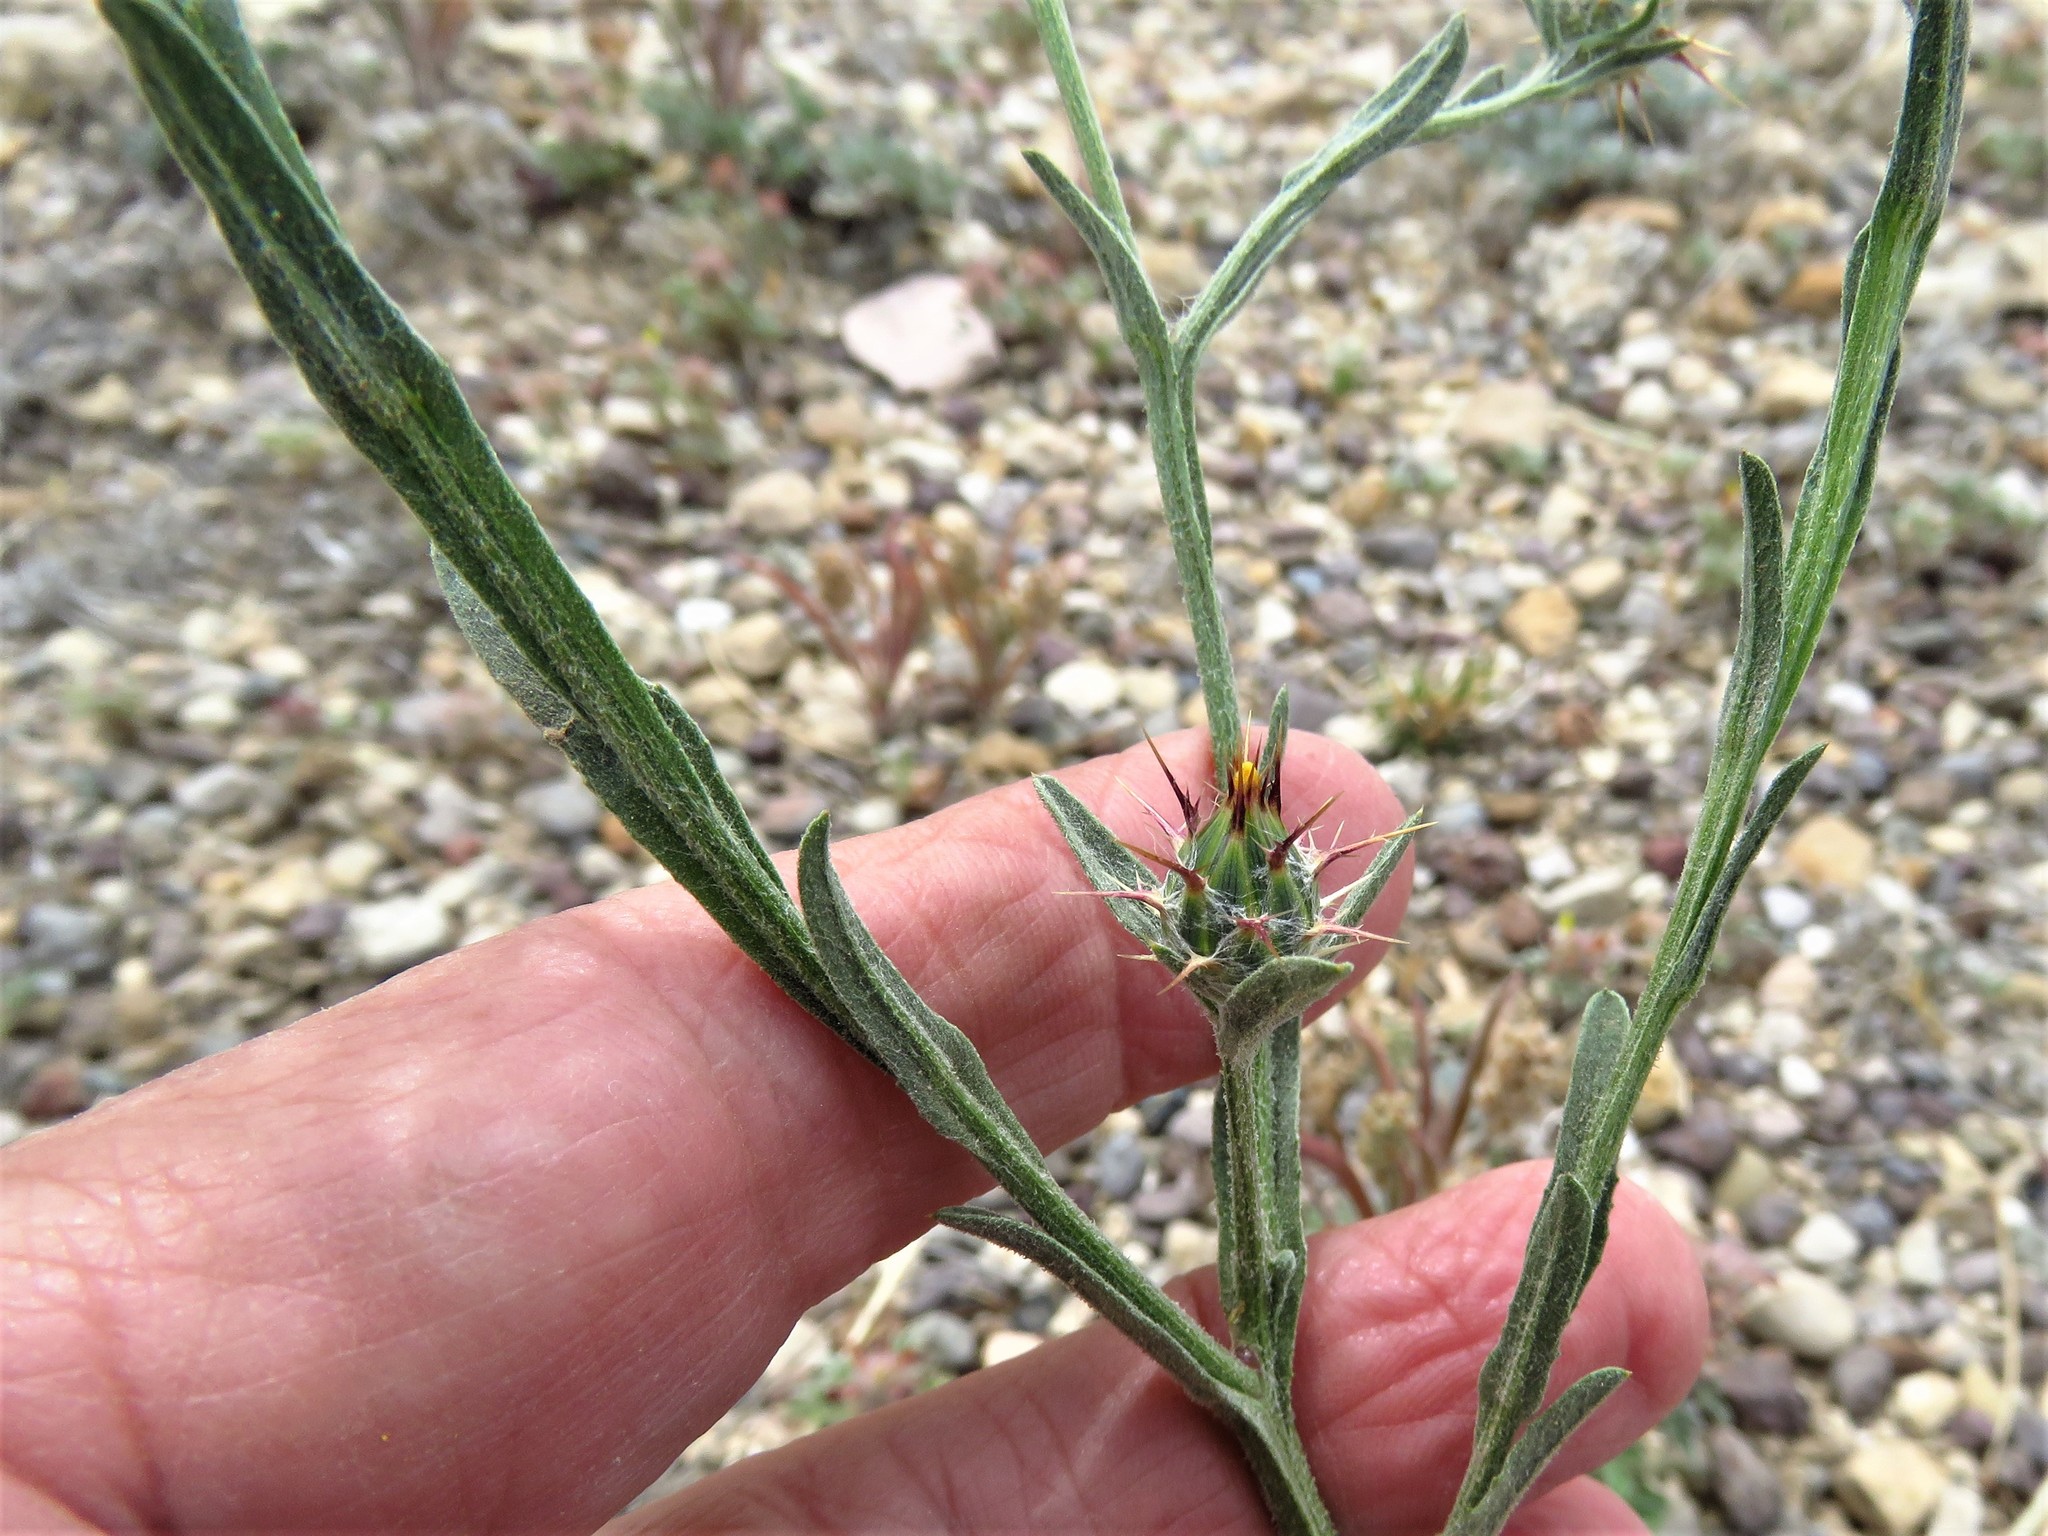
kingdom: Plantae
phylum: Tracheophyta
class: Magnoliopsida
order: Asterales
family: Asteraceae
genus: Centaurea
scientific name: Centaurea melitensis
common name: Maltese star-thistle
